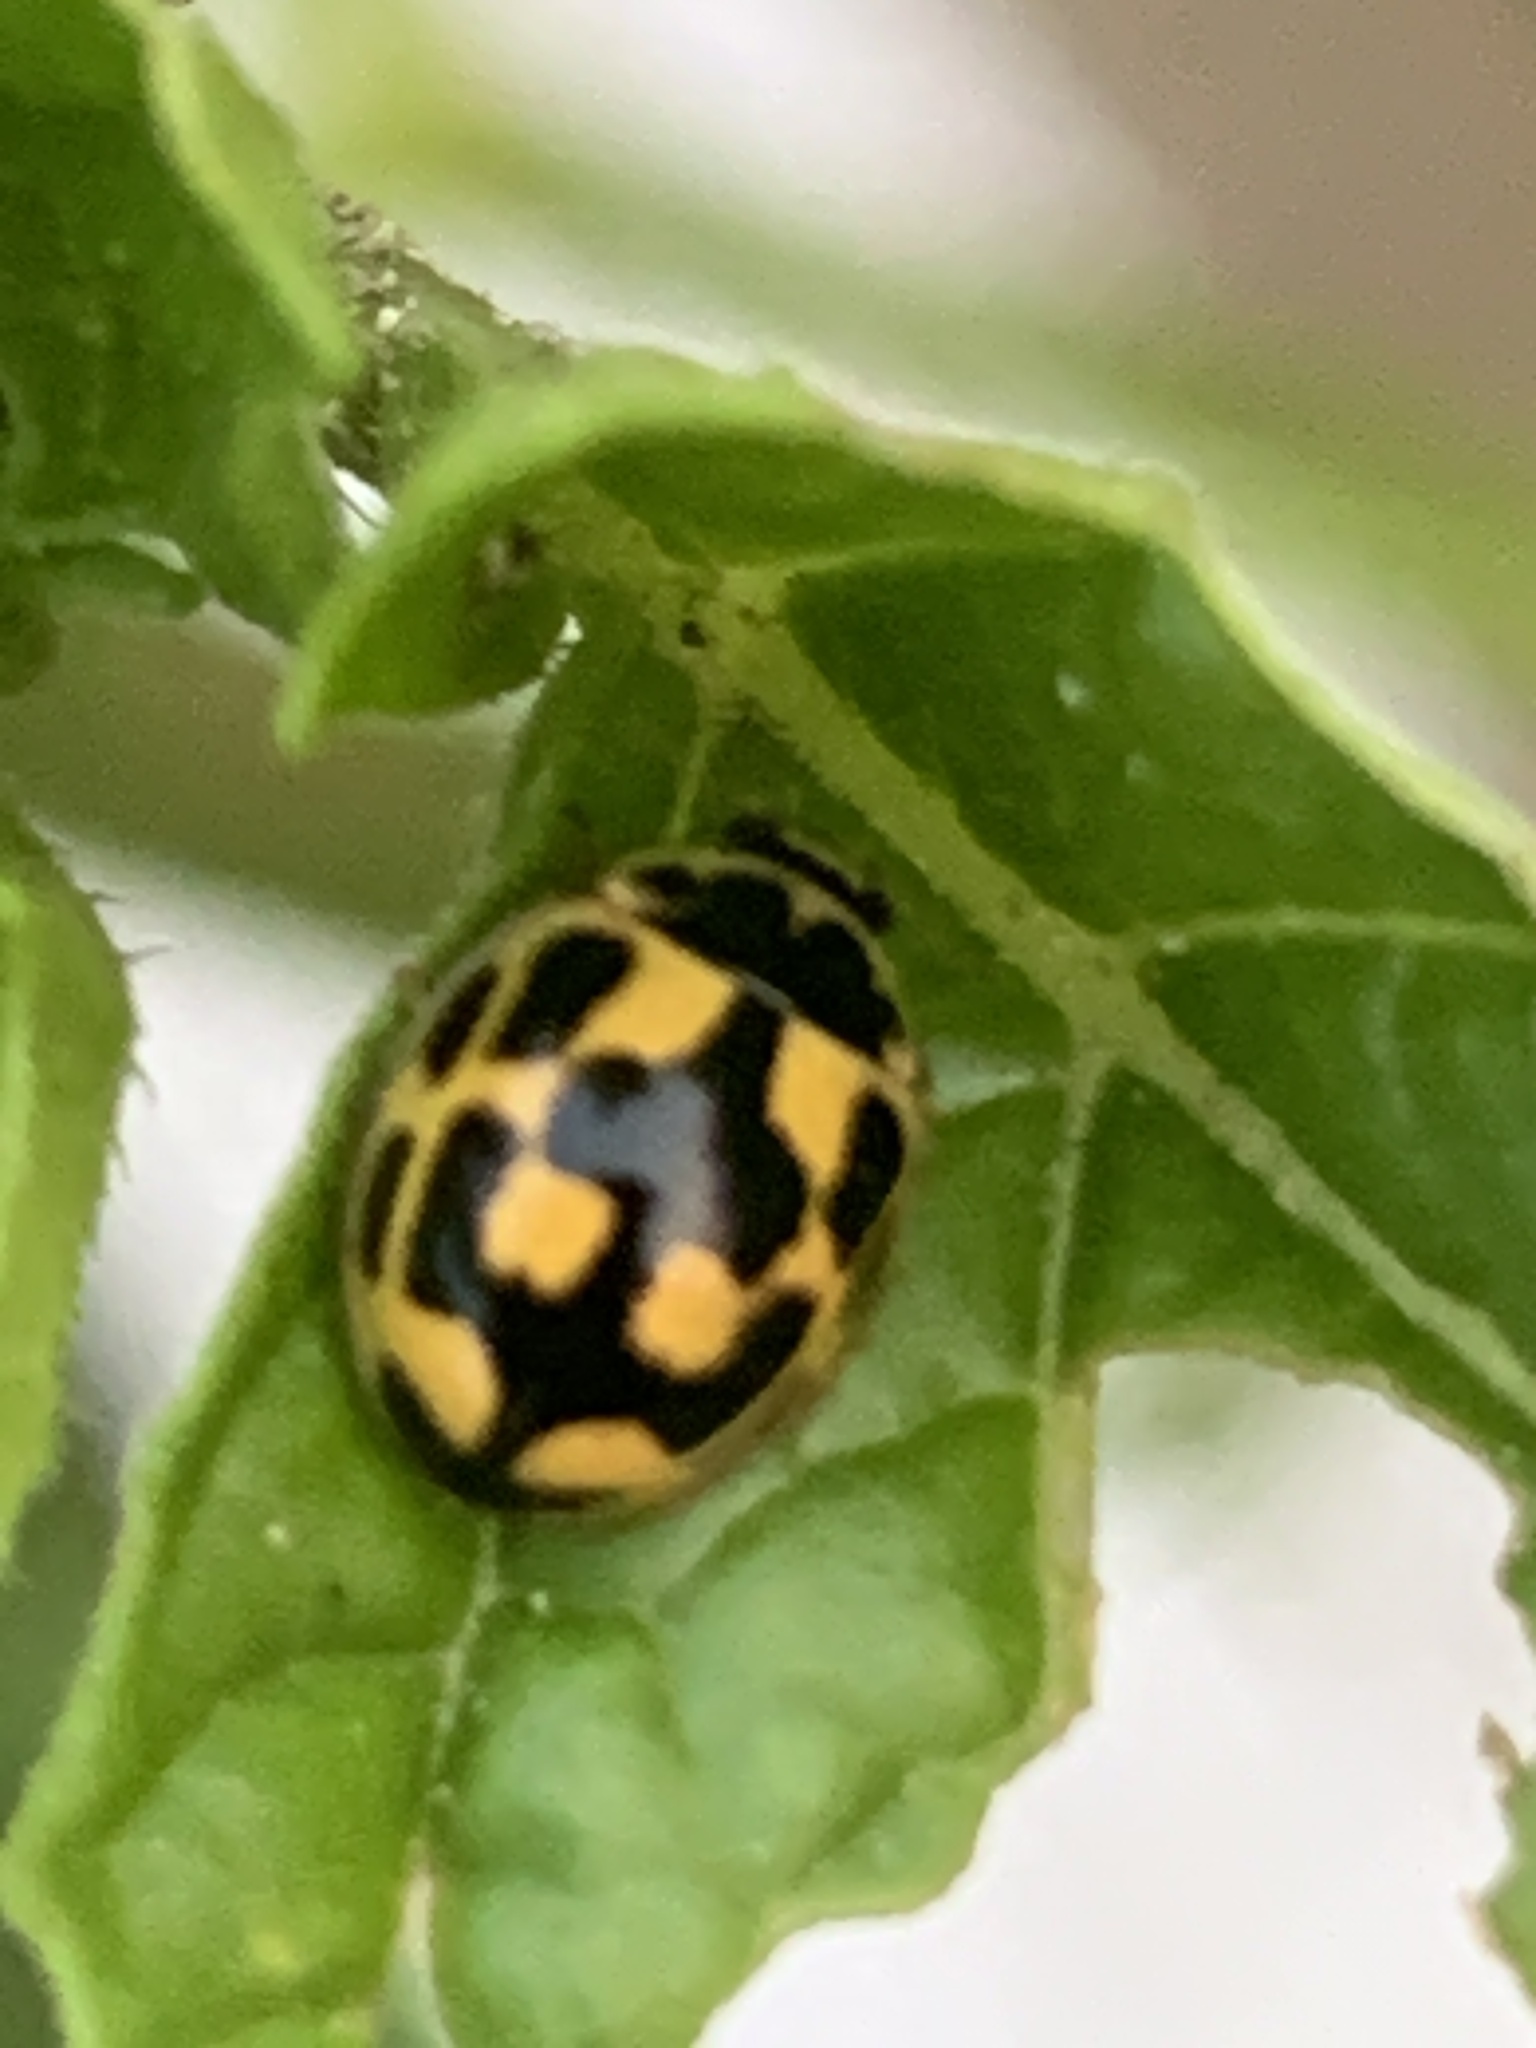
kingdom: Animalia
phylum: Arthropoda
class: Insecta
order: Coleoptera
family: Coccinellidae
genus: Propylaea
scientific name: Propylaea quatuordecimpunctata
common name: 14-spotted ladybird beetle
